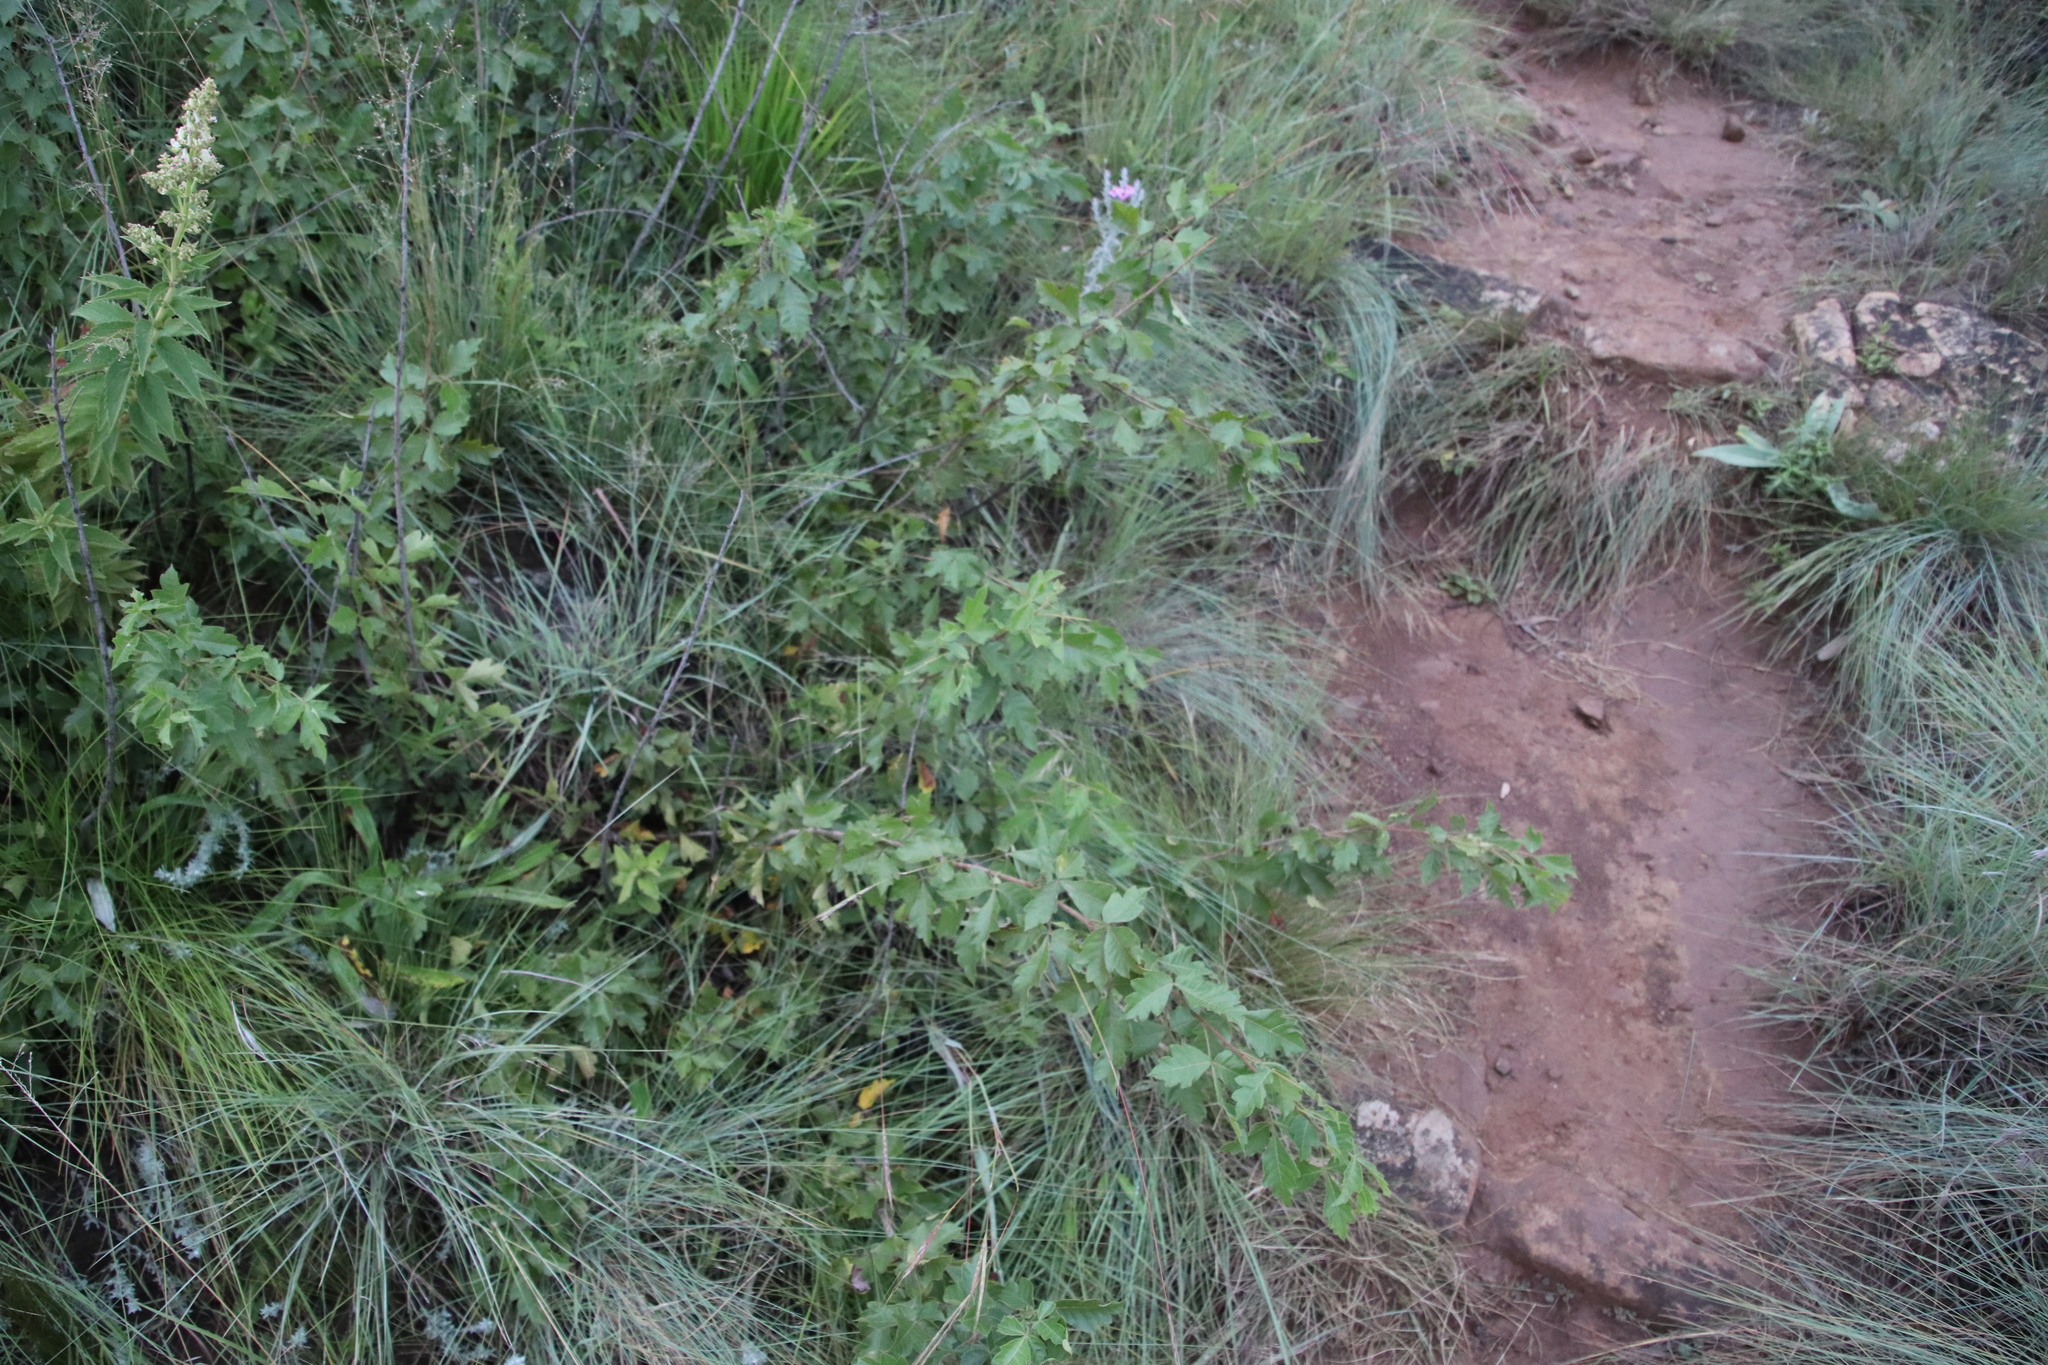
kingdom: Plantae
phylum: Tracheophyta
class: Magnoliopsida
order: Sapindales
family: Anacardiaceae
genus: Searsia
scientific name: Searsia dentata
